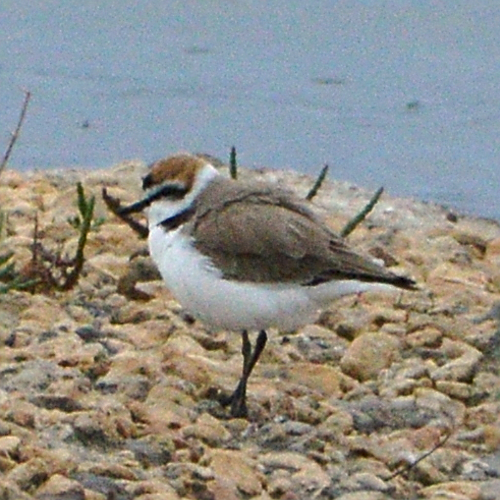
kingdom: Animalia
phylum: Chordata
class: Aves
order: Charadriiformes
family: Charadriidae
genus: Charadrius
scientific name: Charadrius alexandrinus
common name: Kentish plover
